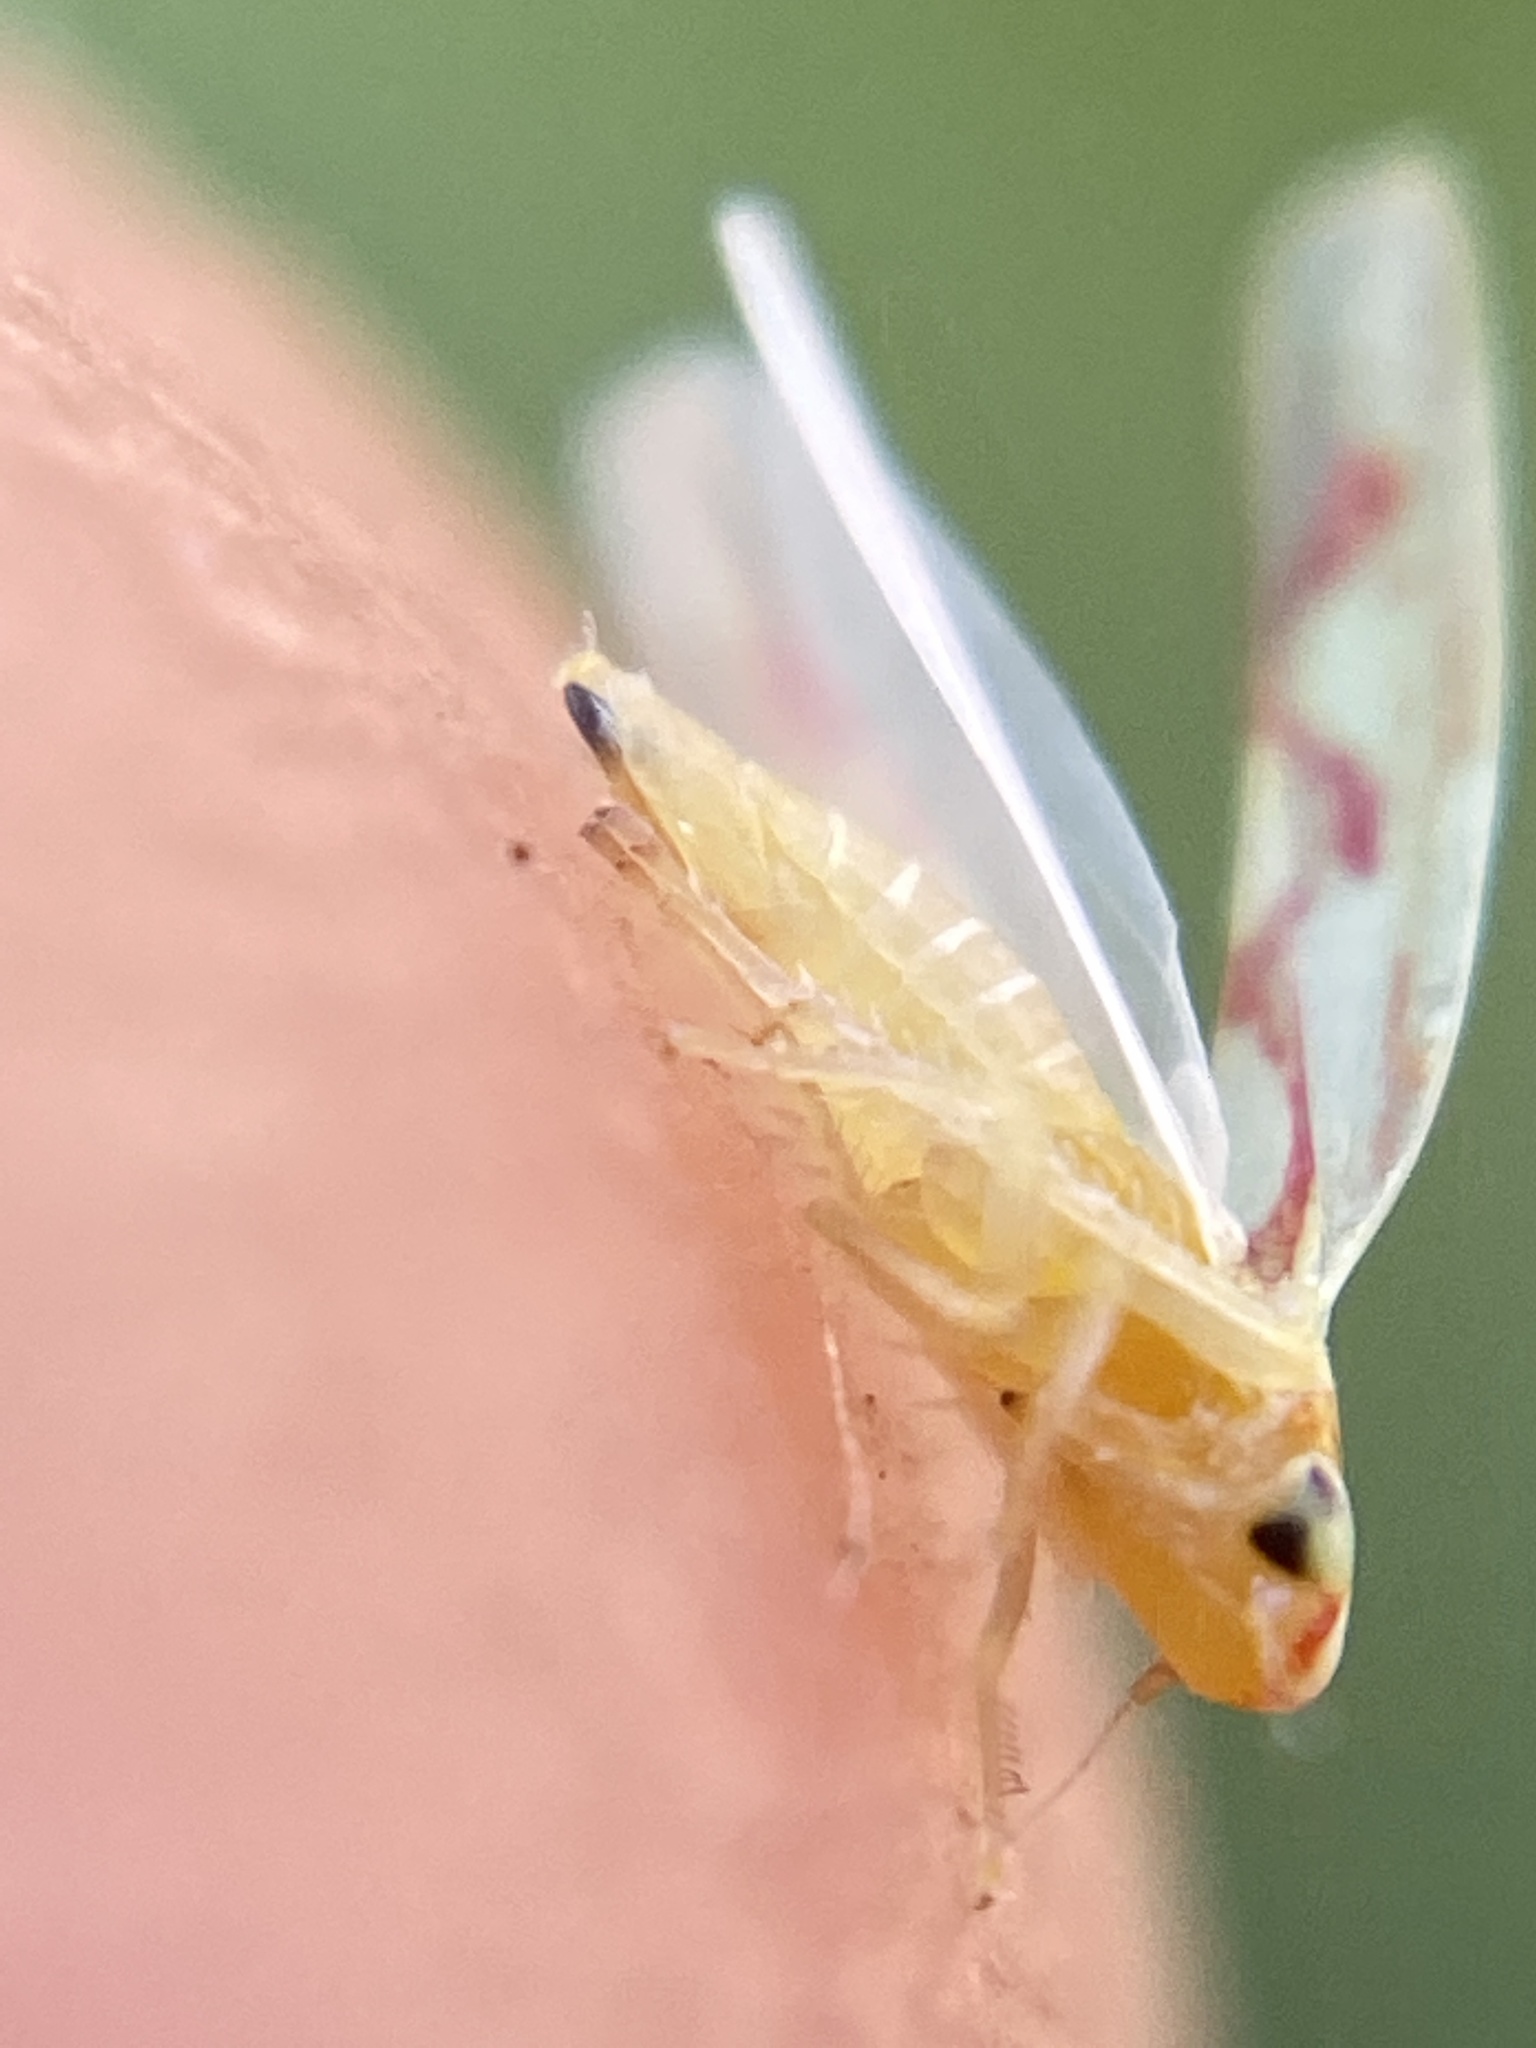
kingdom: Animalia
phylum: Arthropoda
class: Insecta
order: Hemiptera
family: Cicadellidae
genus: Zygina
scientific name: Zygina flammigera
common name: Leafhopper
